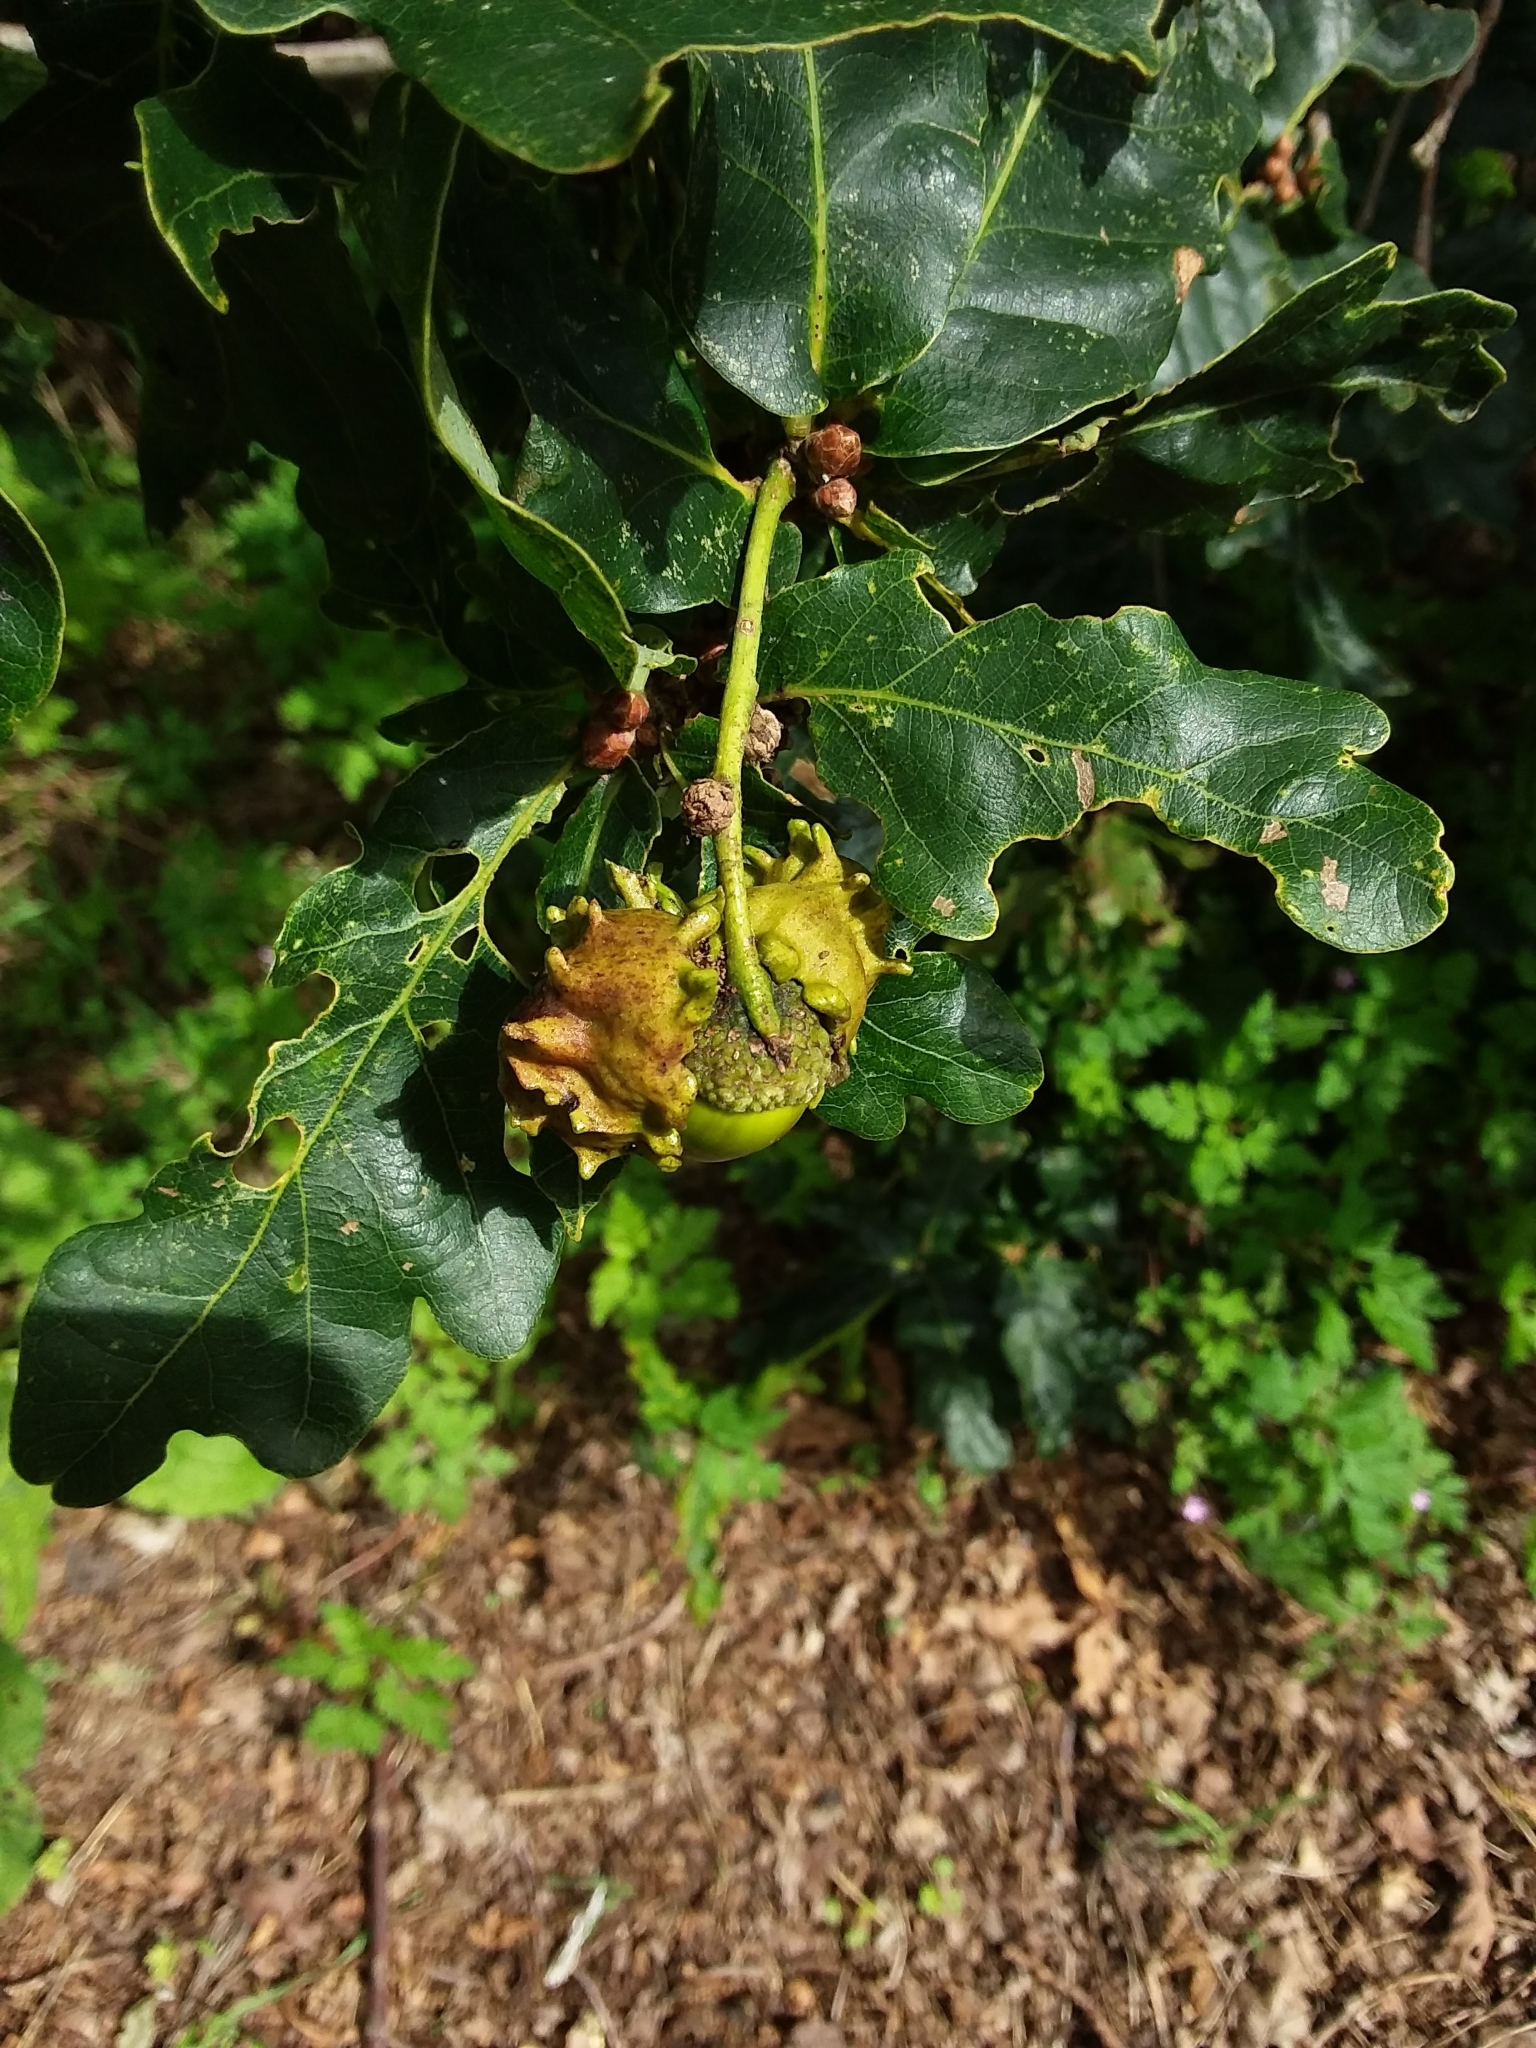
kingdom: Animalia
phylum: Arthropoda
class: Insecta
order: Hymenoptera
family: Cynipidae
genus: Andricus
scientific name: Andricus quercuscalicis
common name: Knopper gall
